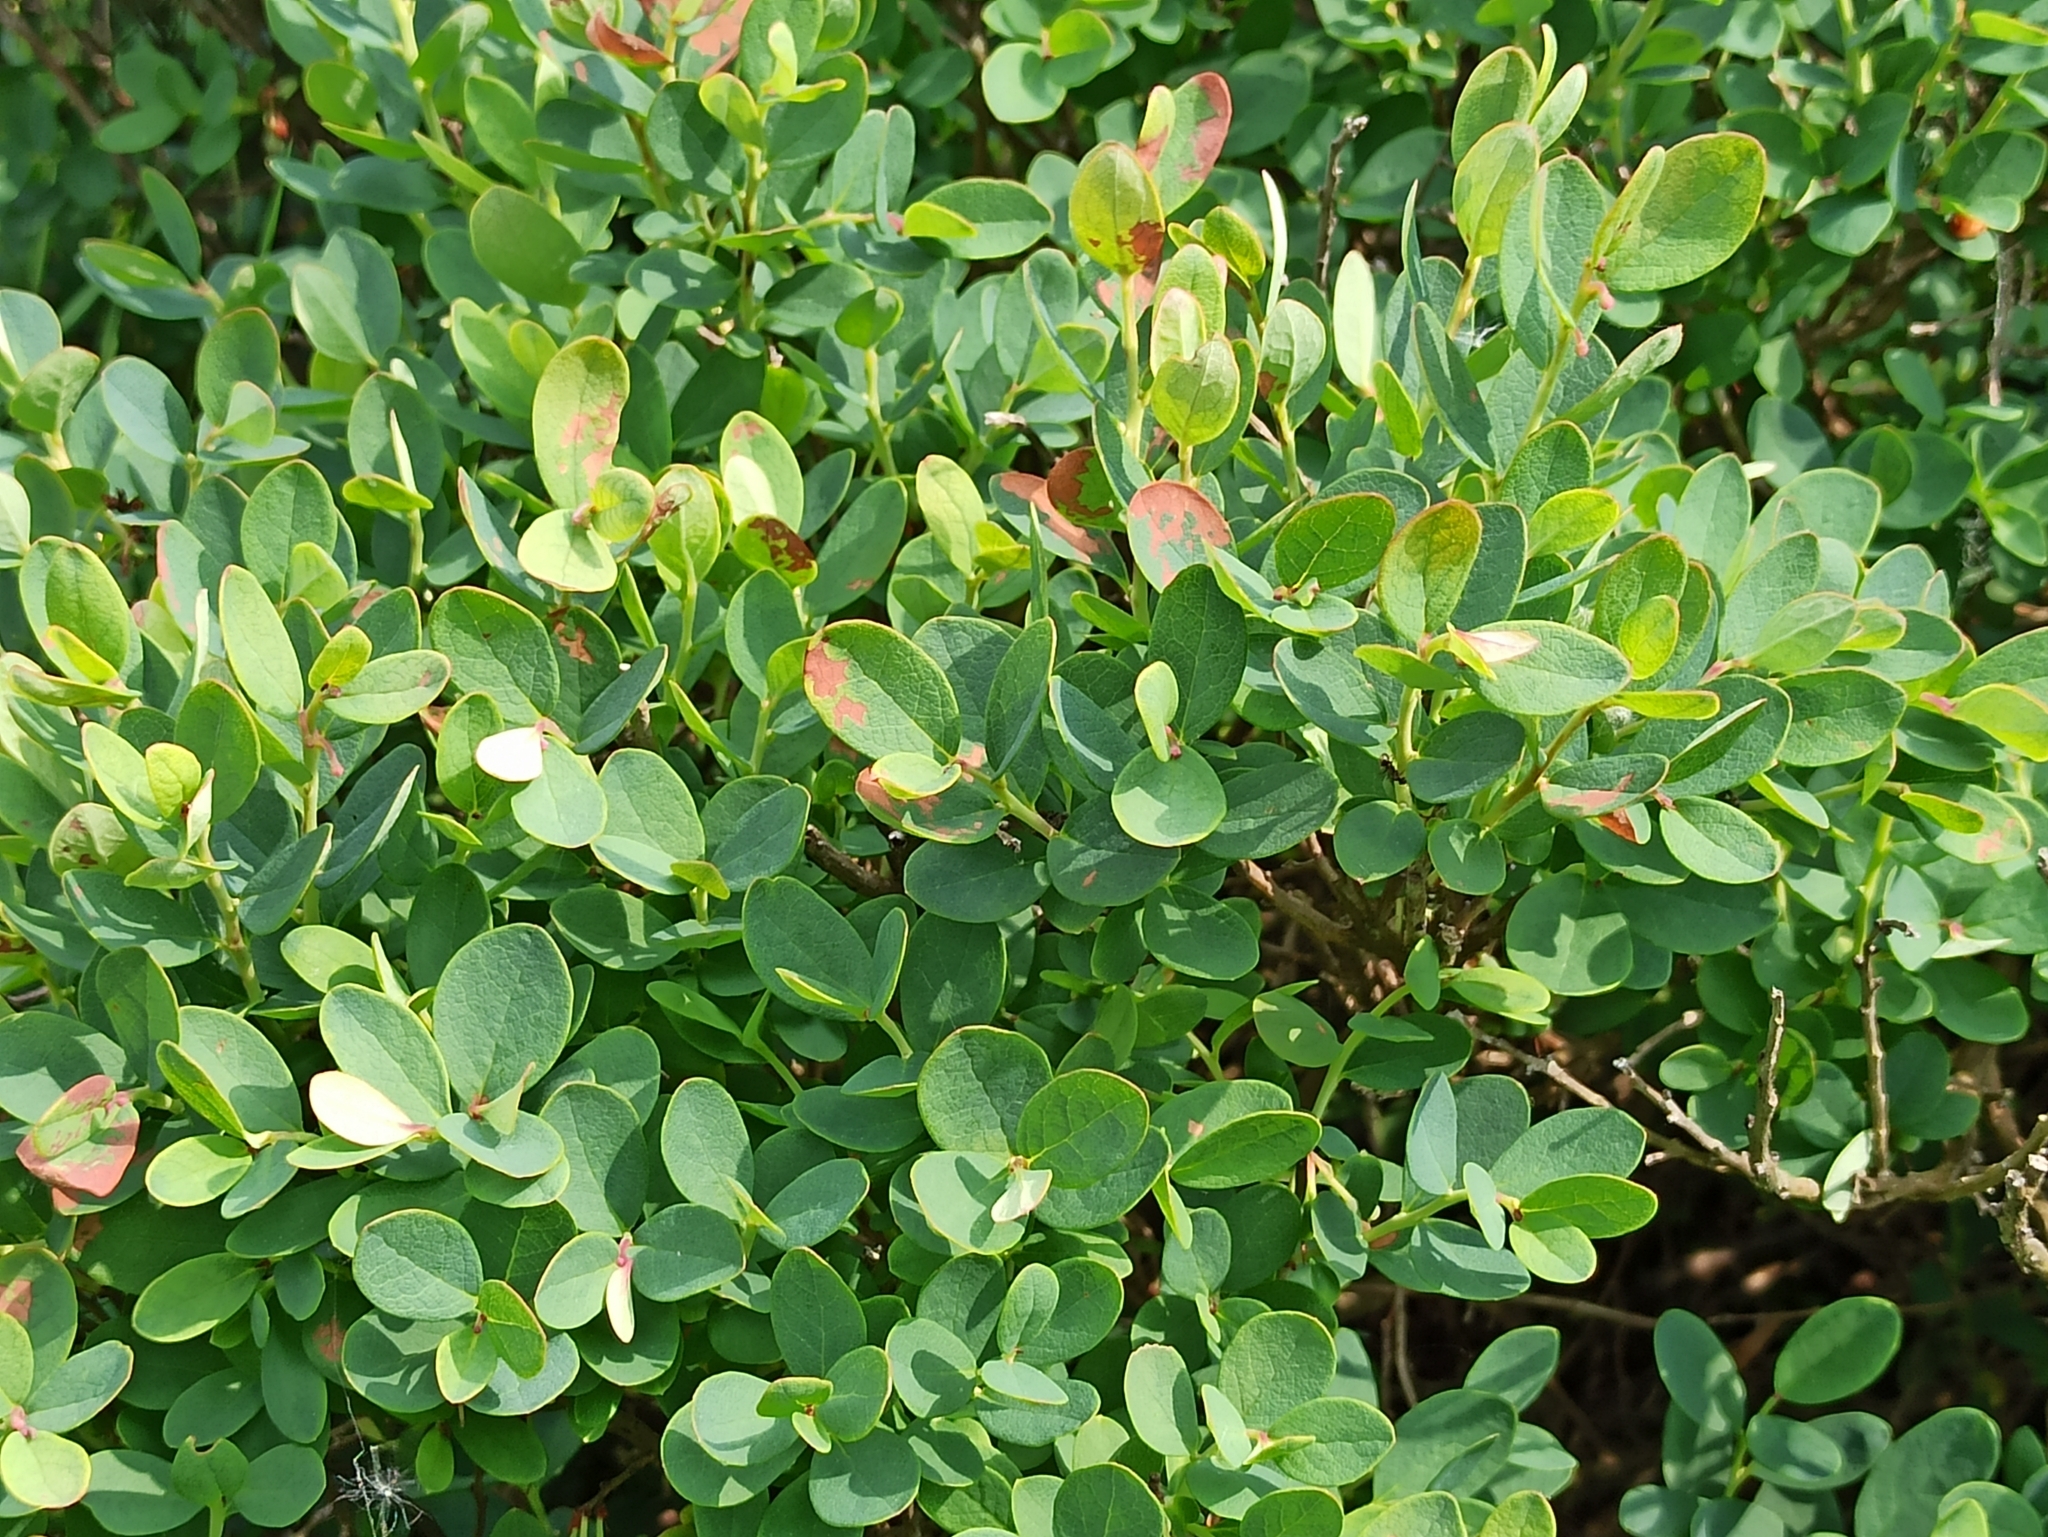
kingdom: Plantae
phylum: Tracheophyta
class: Magnoliopsida
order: Ericales
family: Ericaceae
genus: Vaccinium
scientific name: Vaccinium uliginosum
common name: Bog bilberry
